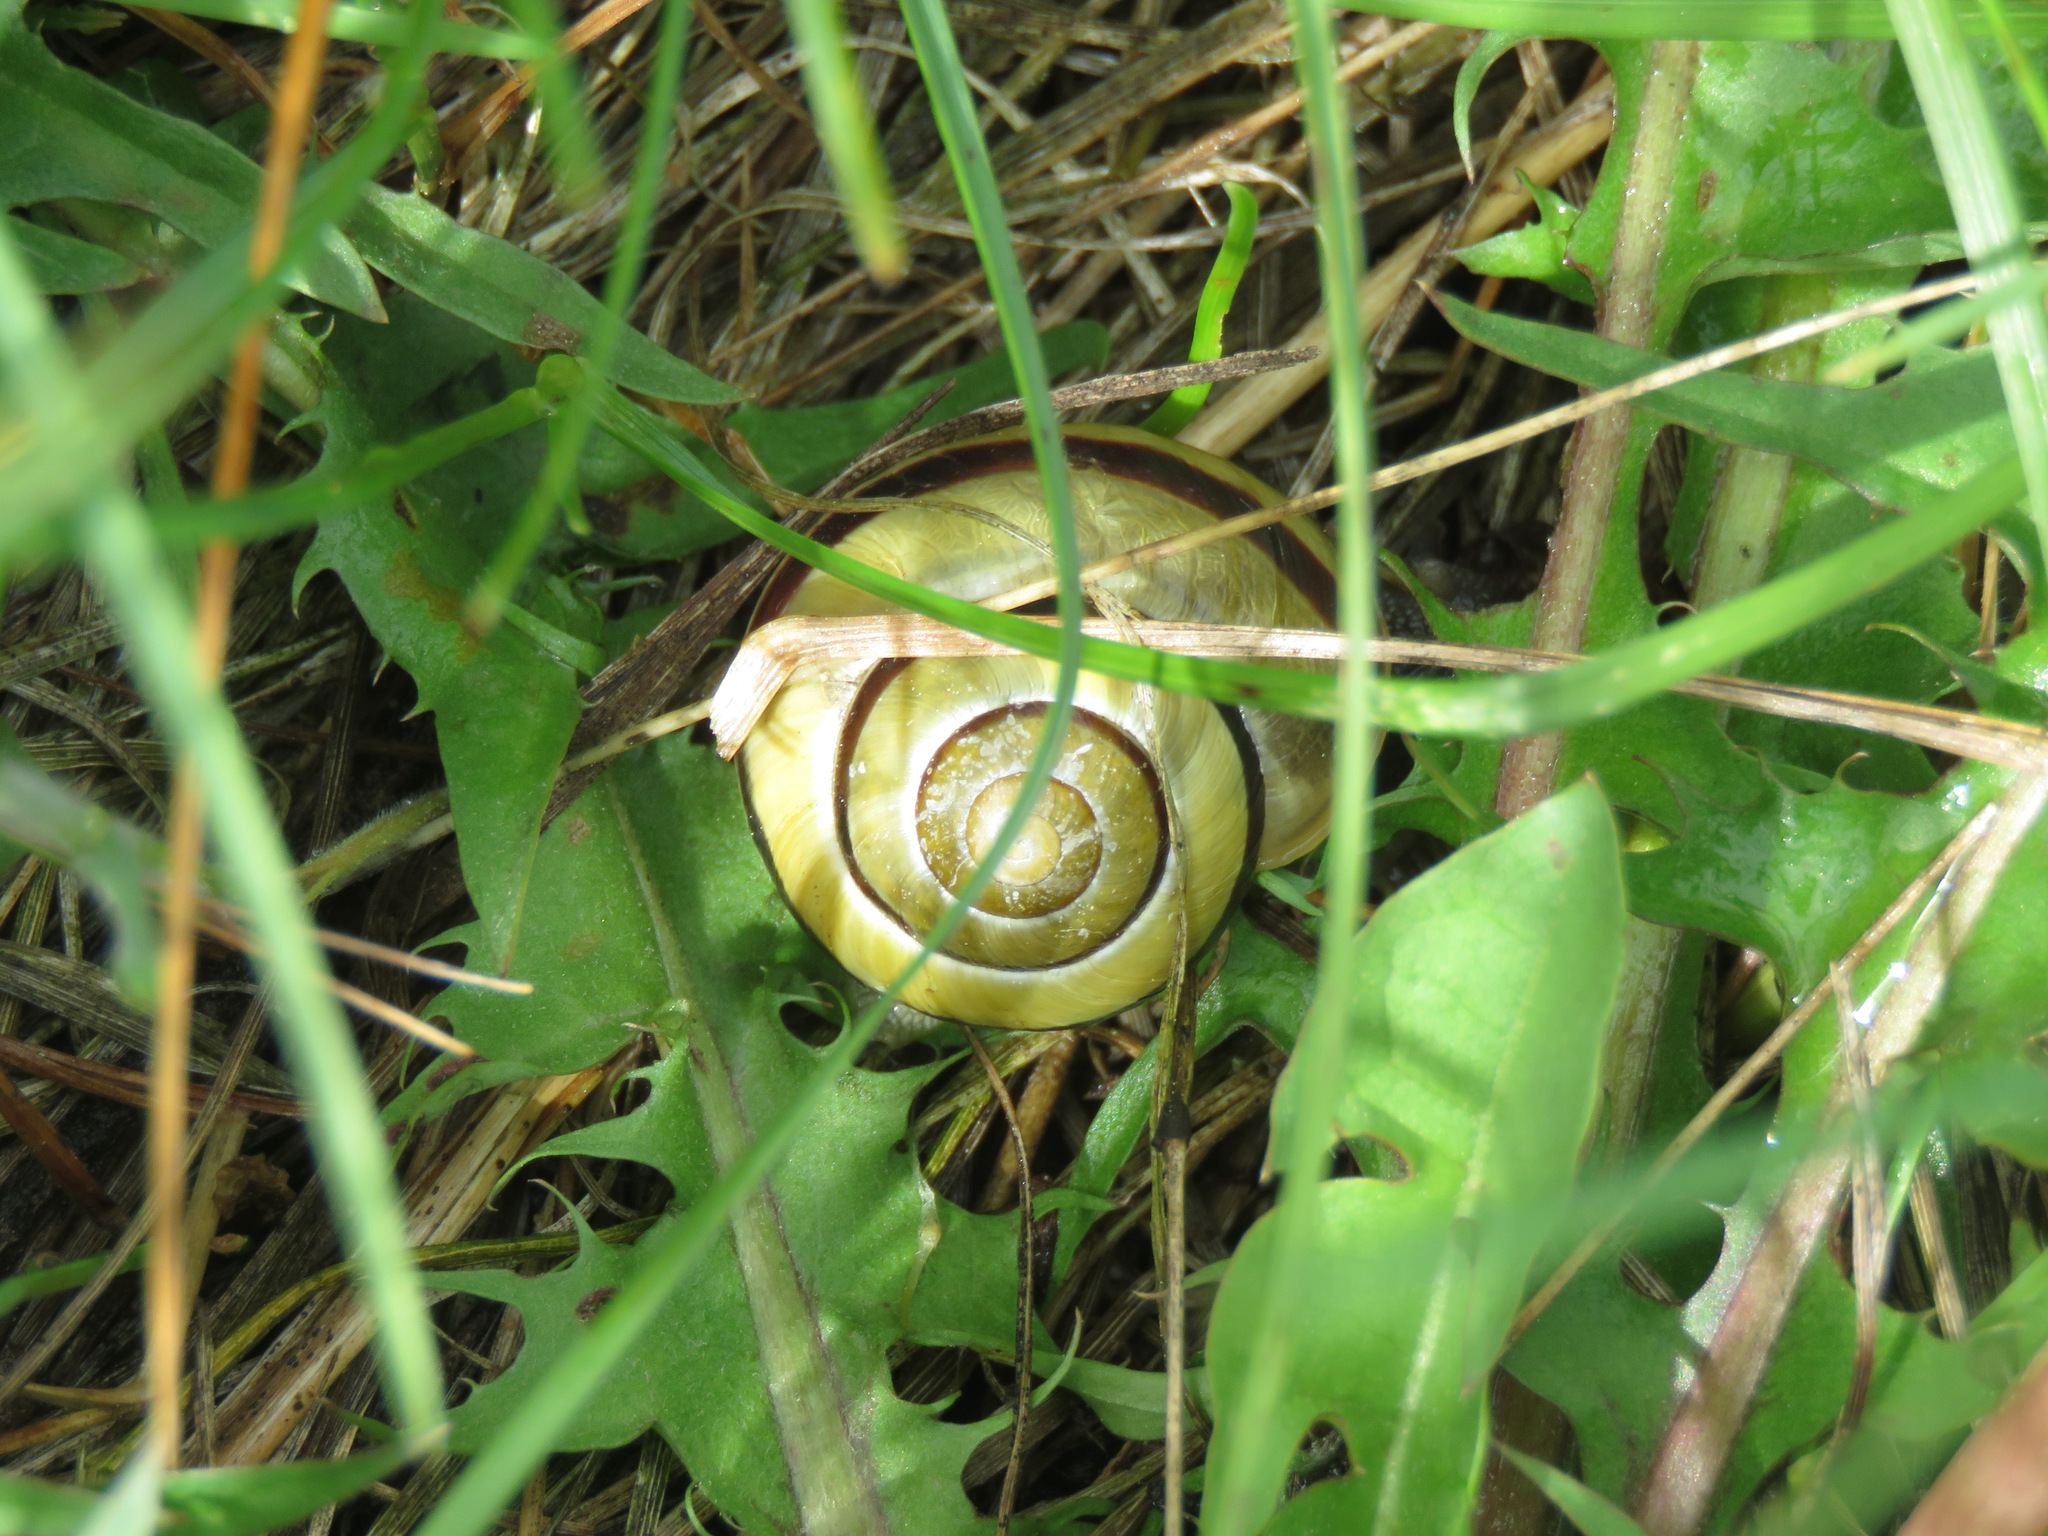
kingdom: Animalia
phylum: Mollusca
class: Gastropoda
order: Stylommatophora
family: Helicidae
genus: Cepaea
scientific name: Cepaea nemoralis
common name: Grovesnail
